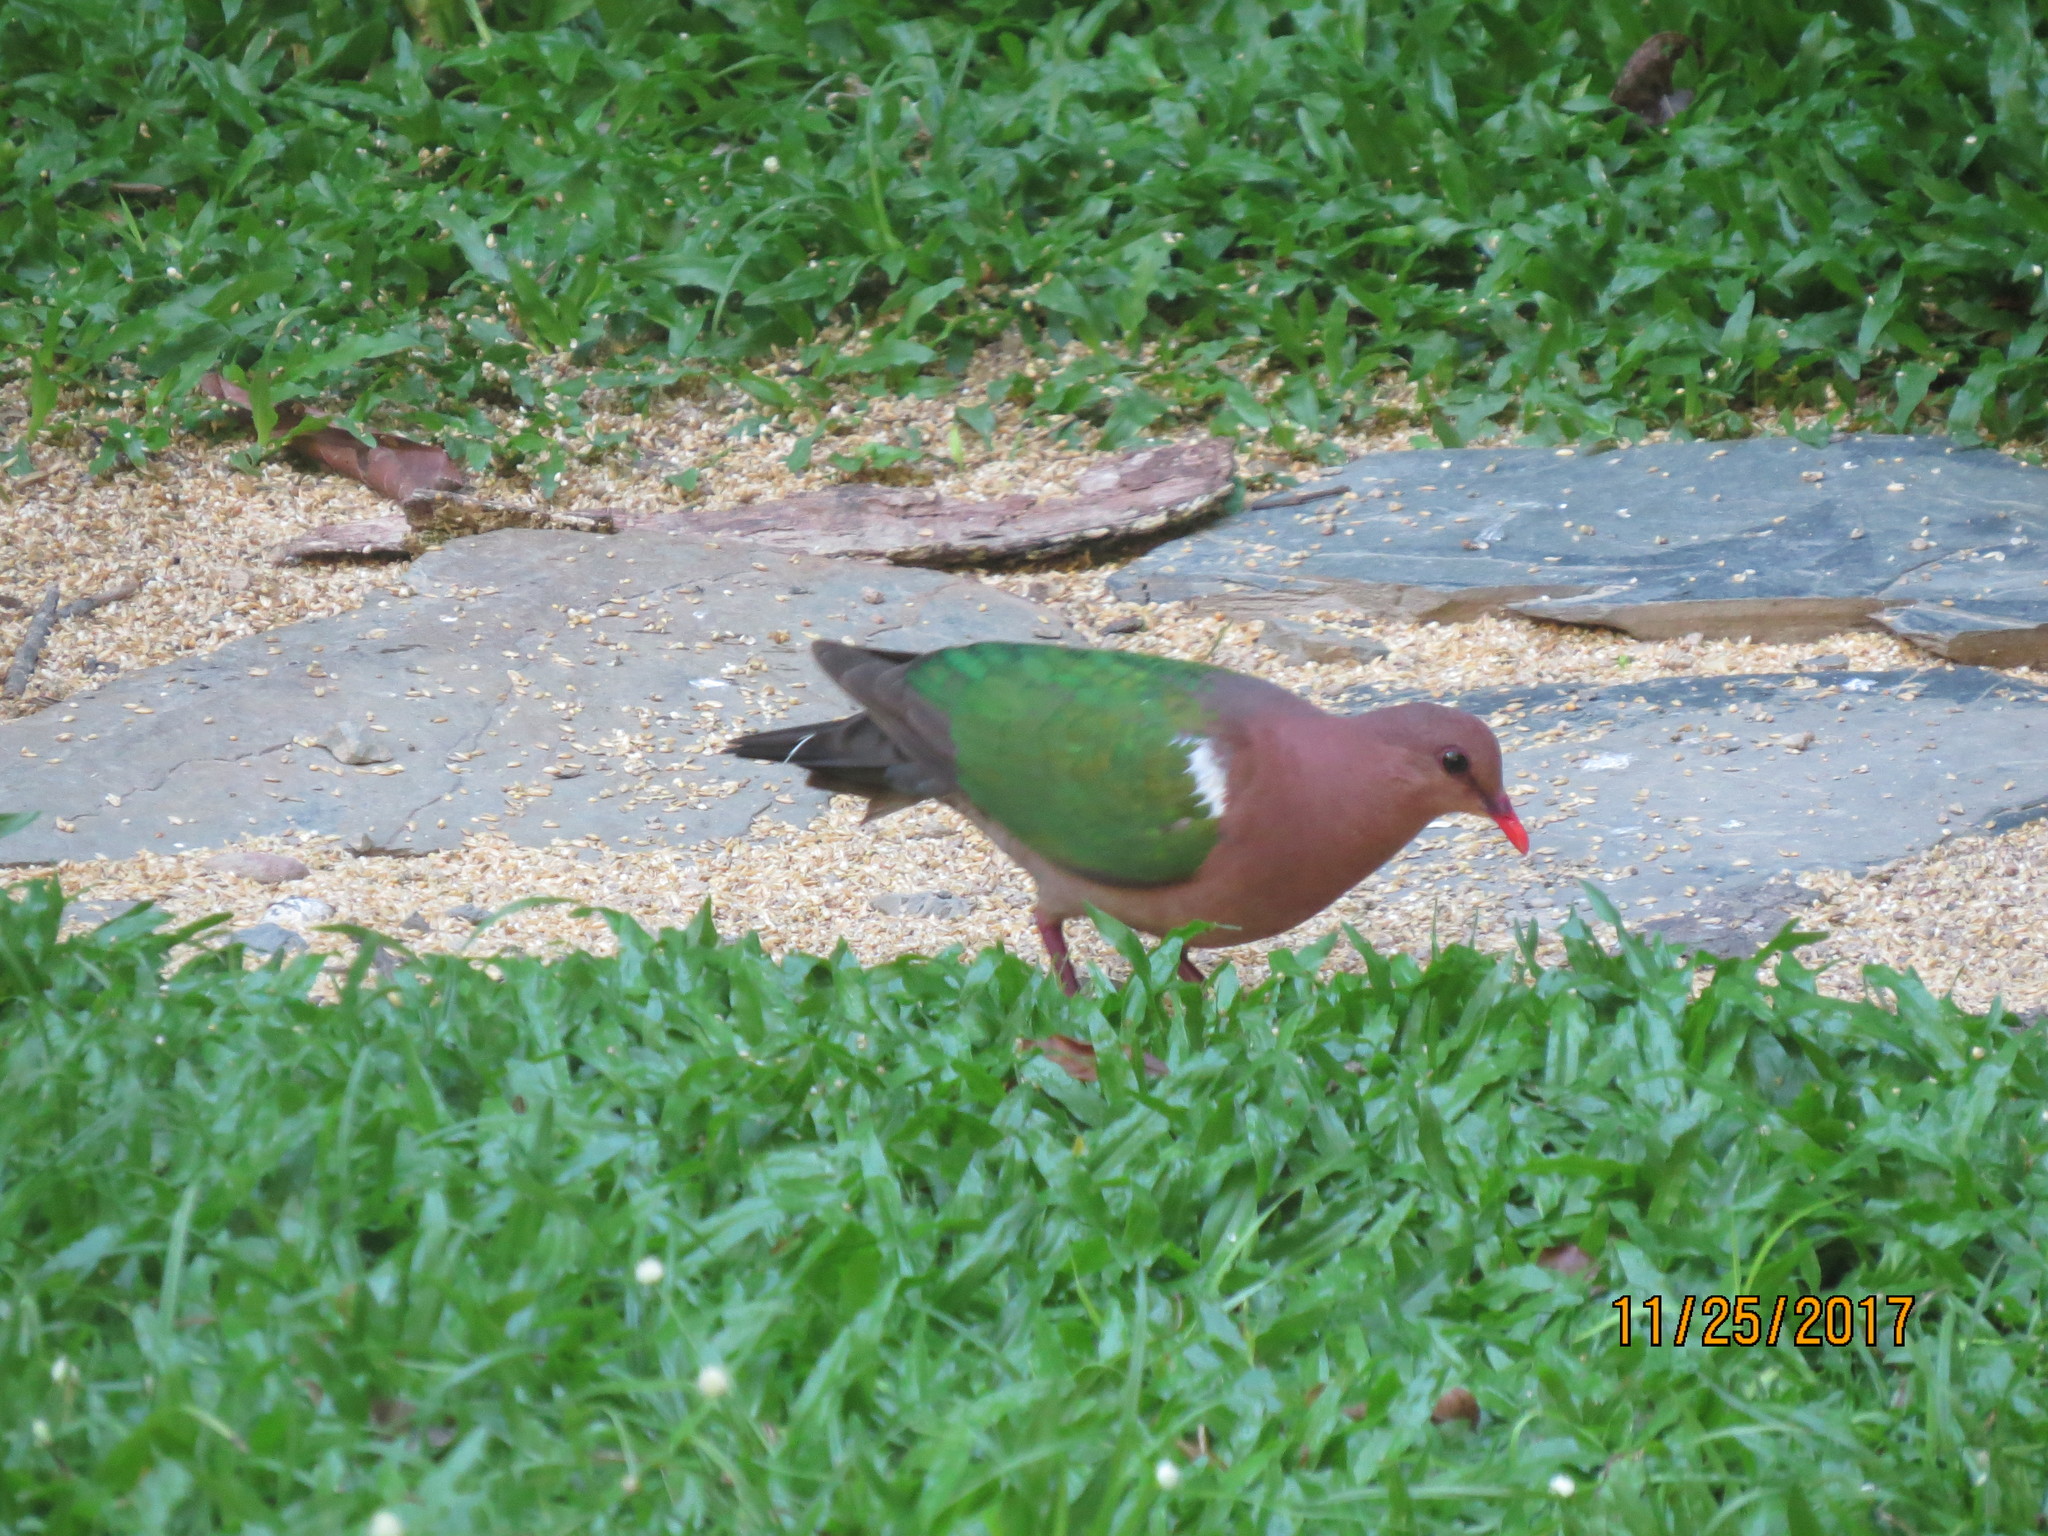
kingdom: Animalia
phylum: Chordata
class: Aves
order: Columbiformes
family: Columbidae
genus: Chalcophaps
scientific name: Chalcophaps longirostris
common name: Pacific emerald dove
